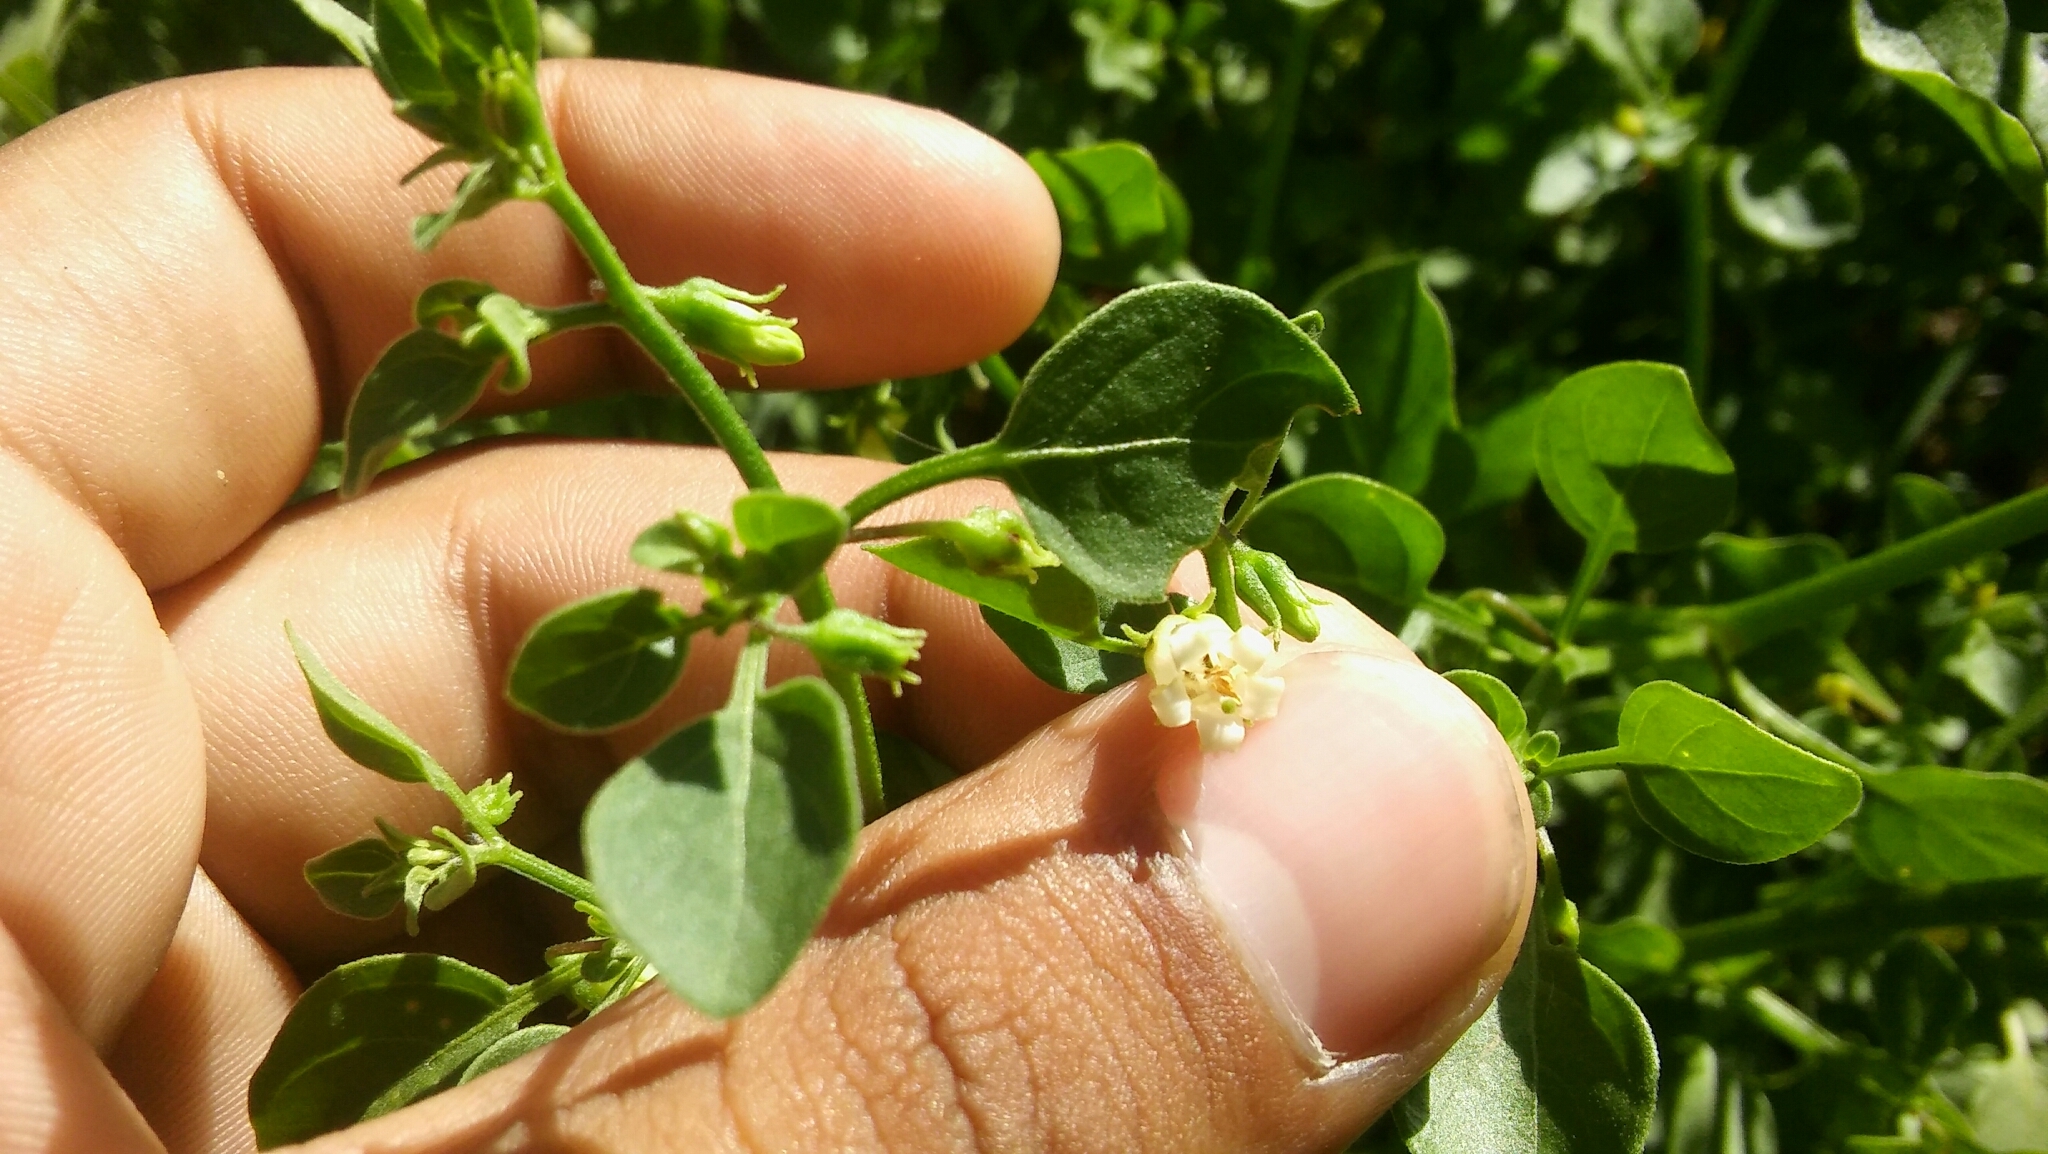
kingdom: Plantae
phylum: Tracheophyta
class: Magnoliopsida
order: Solanales
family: Solanaceae
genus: Salpichroa
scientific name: Salpichroa origanifolia
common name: Lily-of-the-valley-vine
